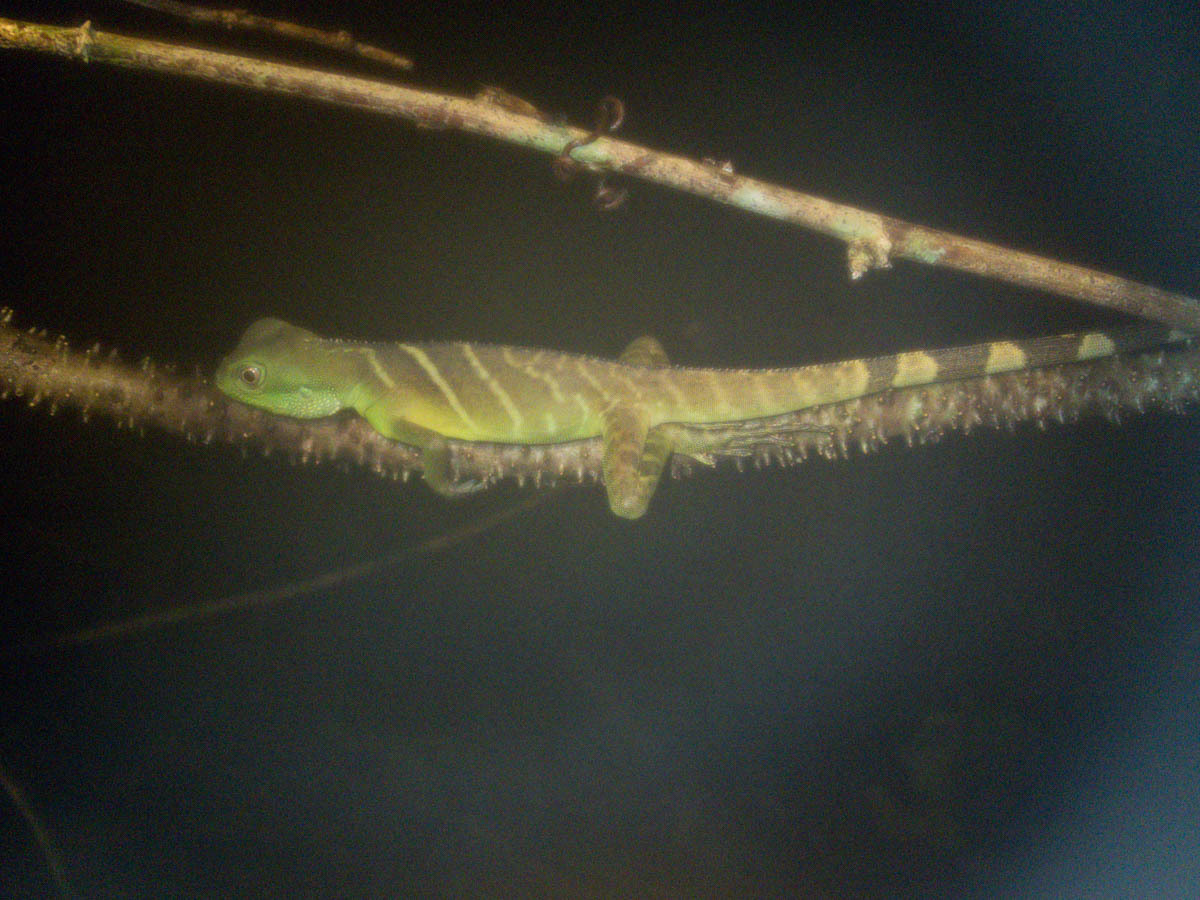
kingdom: Animalia
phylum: Chordata
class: Squamata
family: Agamidae
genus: Physignathus
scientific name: Physignathus cocincinus
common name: Asian water dragon
